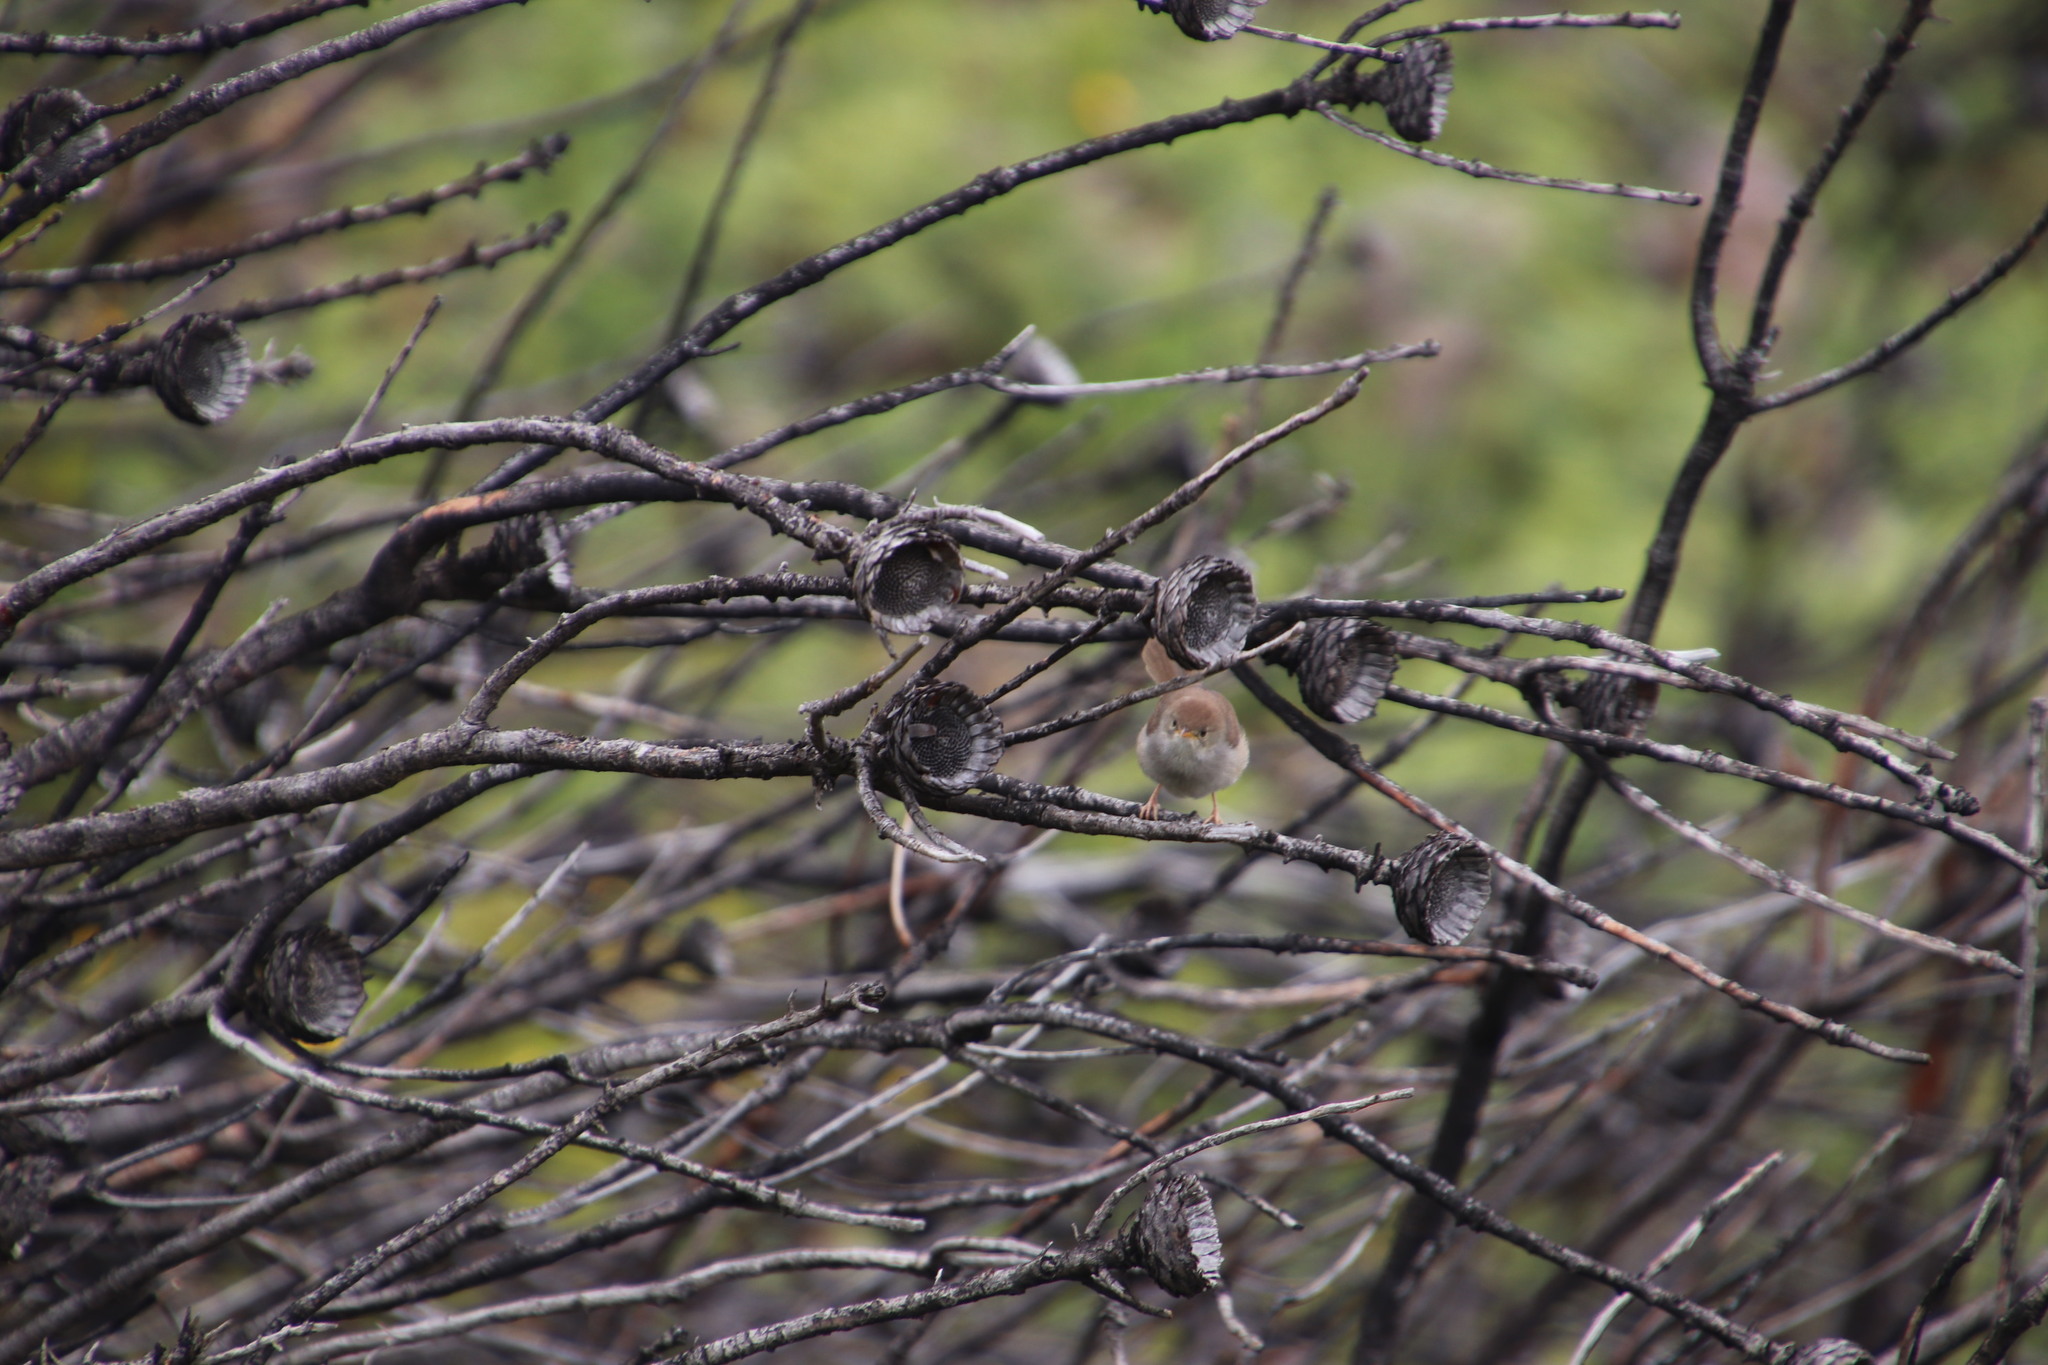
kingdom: Animalia
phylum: Chordata
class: Aves
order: Passeriformes
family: Cisticolidae
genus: Cisticola
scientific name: Cisticola fulvicapilla
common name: Neddicky
